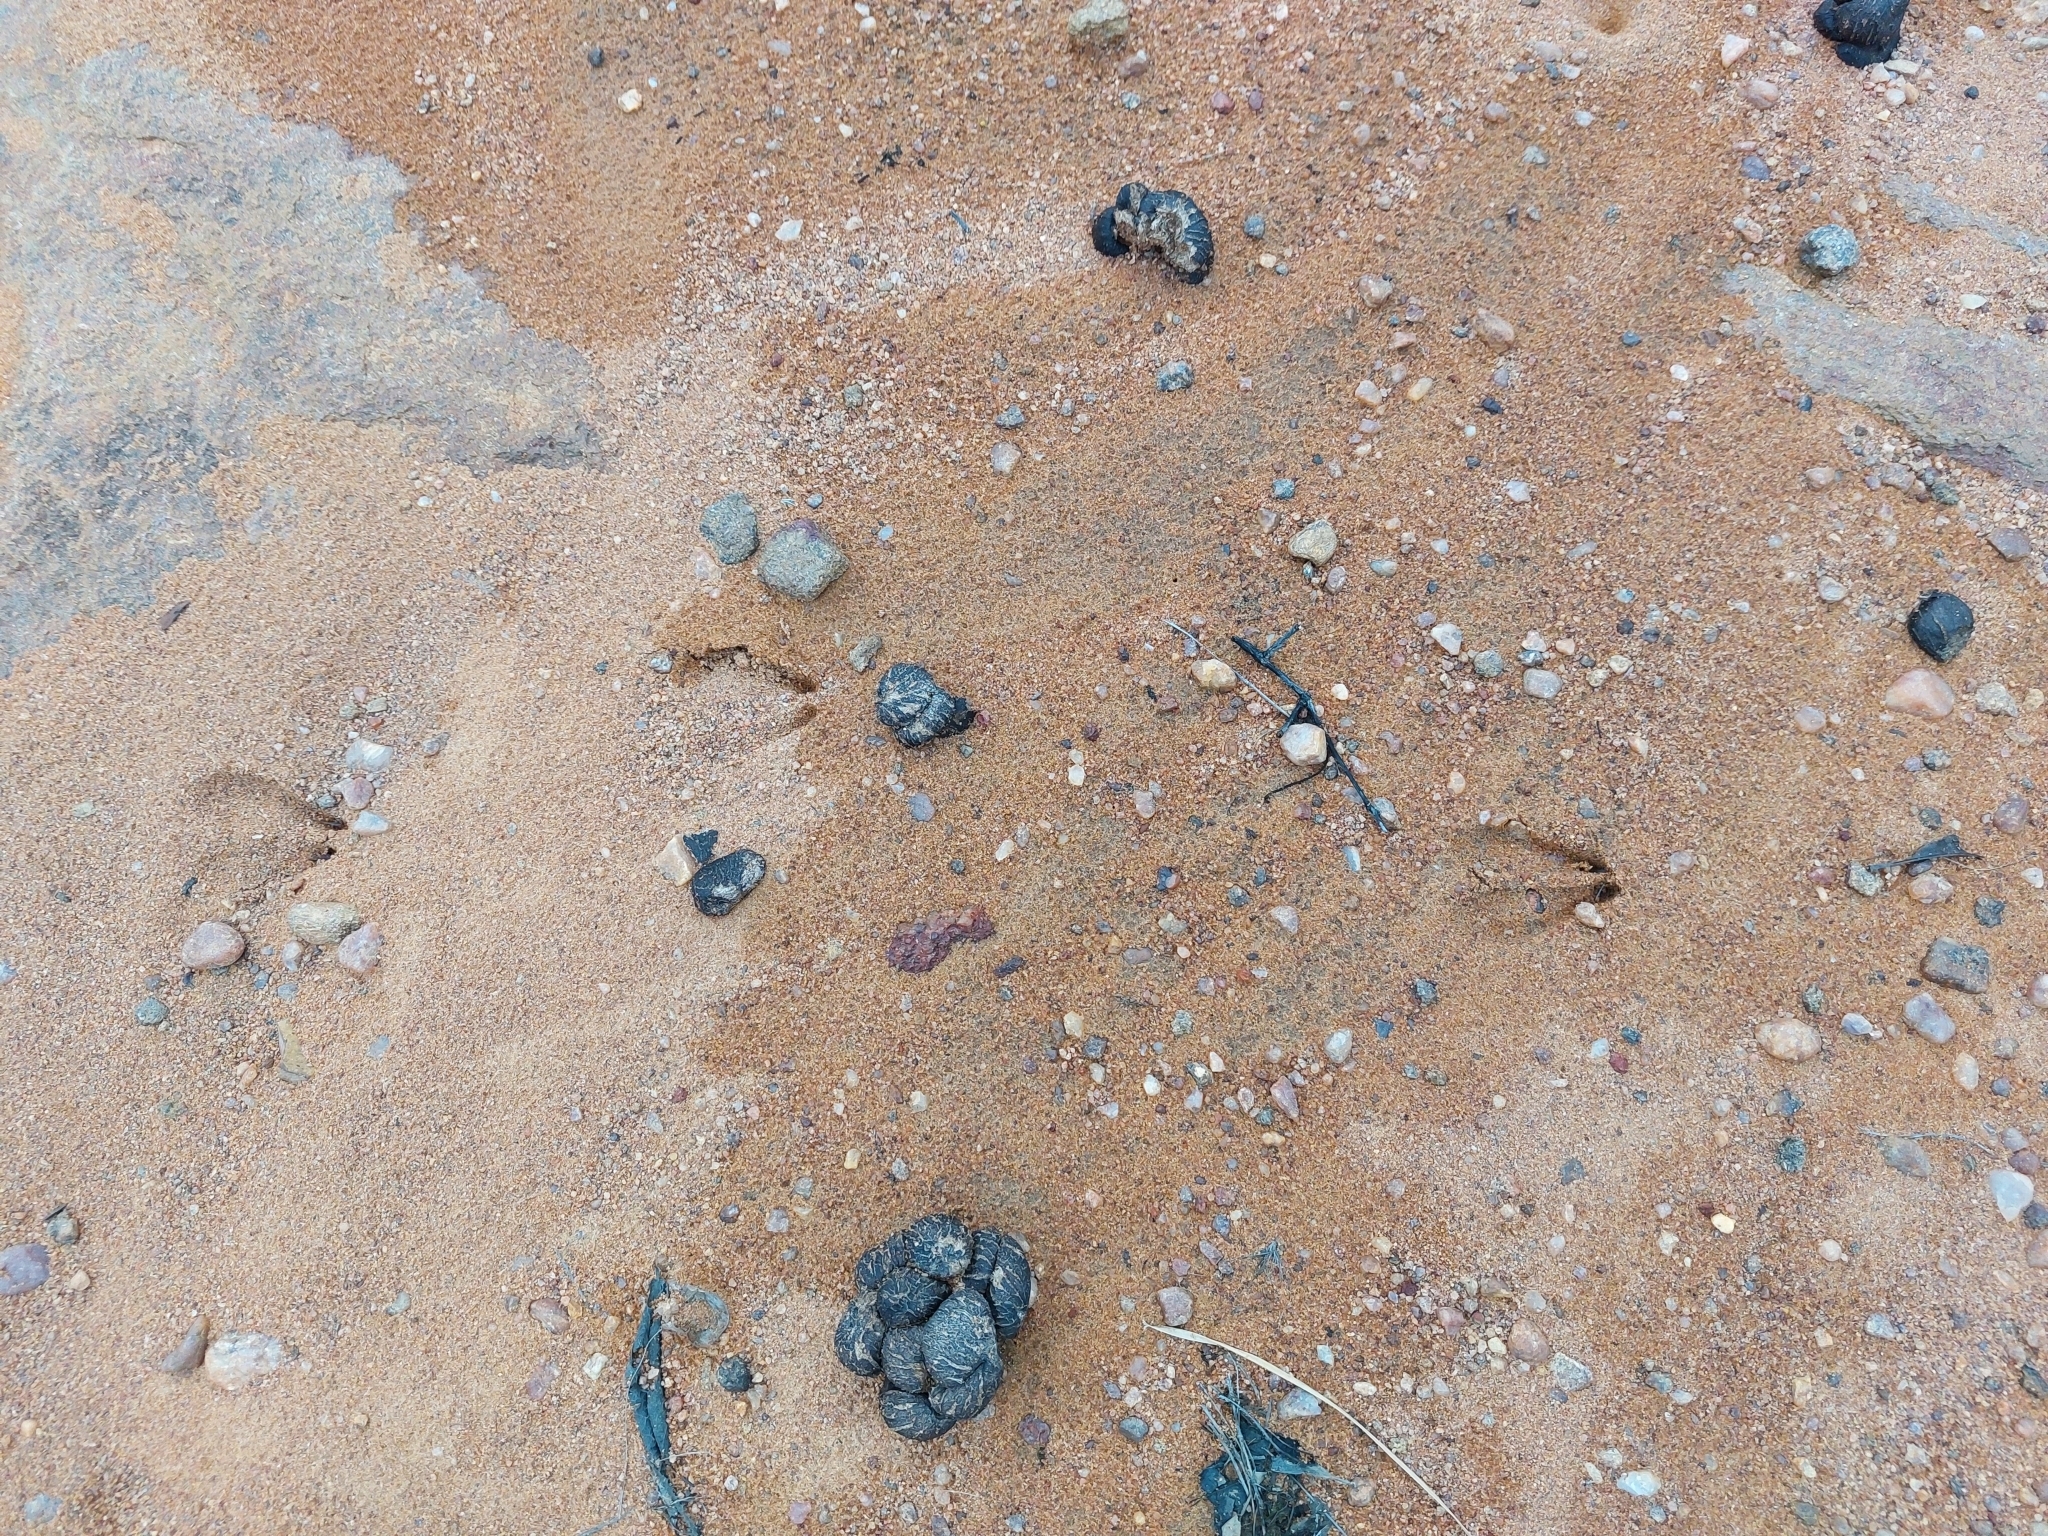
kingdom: Animalia
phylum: Chordata
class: Mammalia
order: Artiodactyla
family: Bovidae
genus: Aepyceros
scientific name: Aepyceros melampus
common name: Impala
